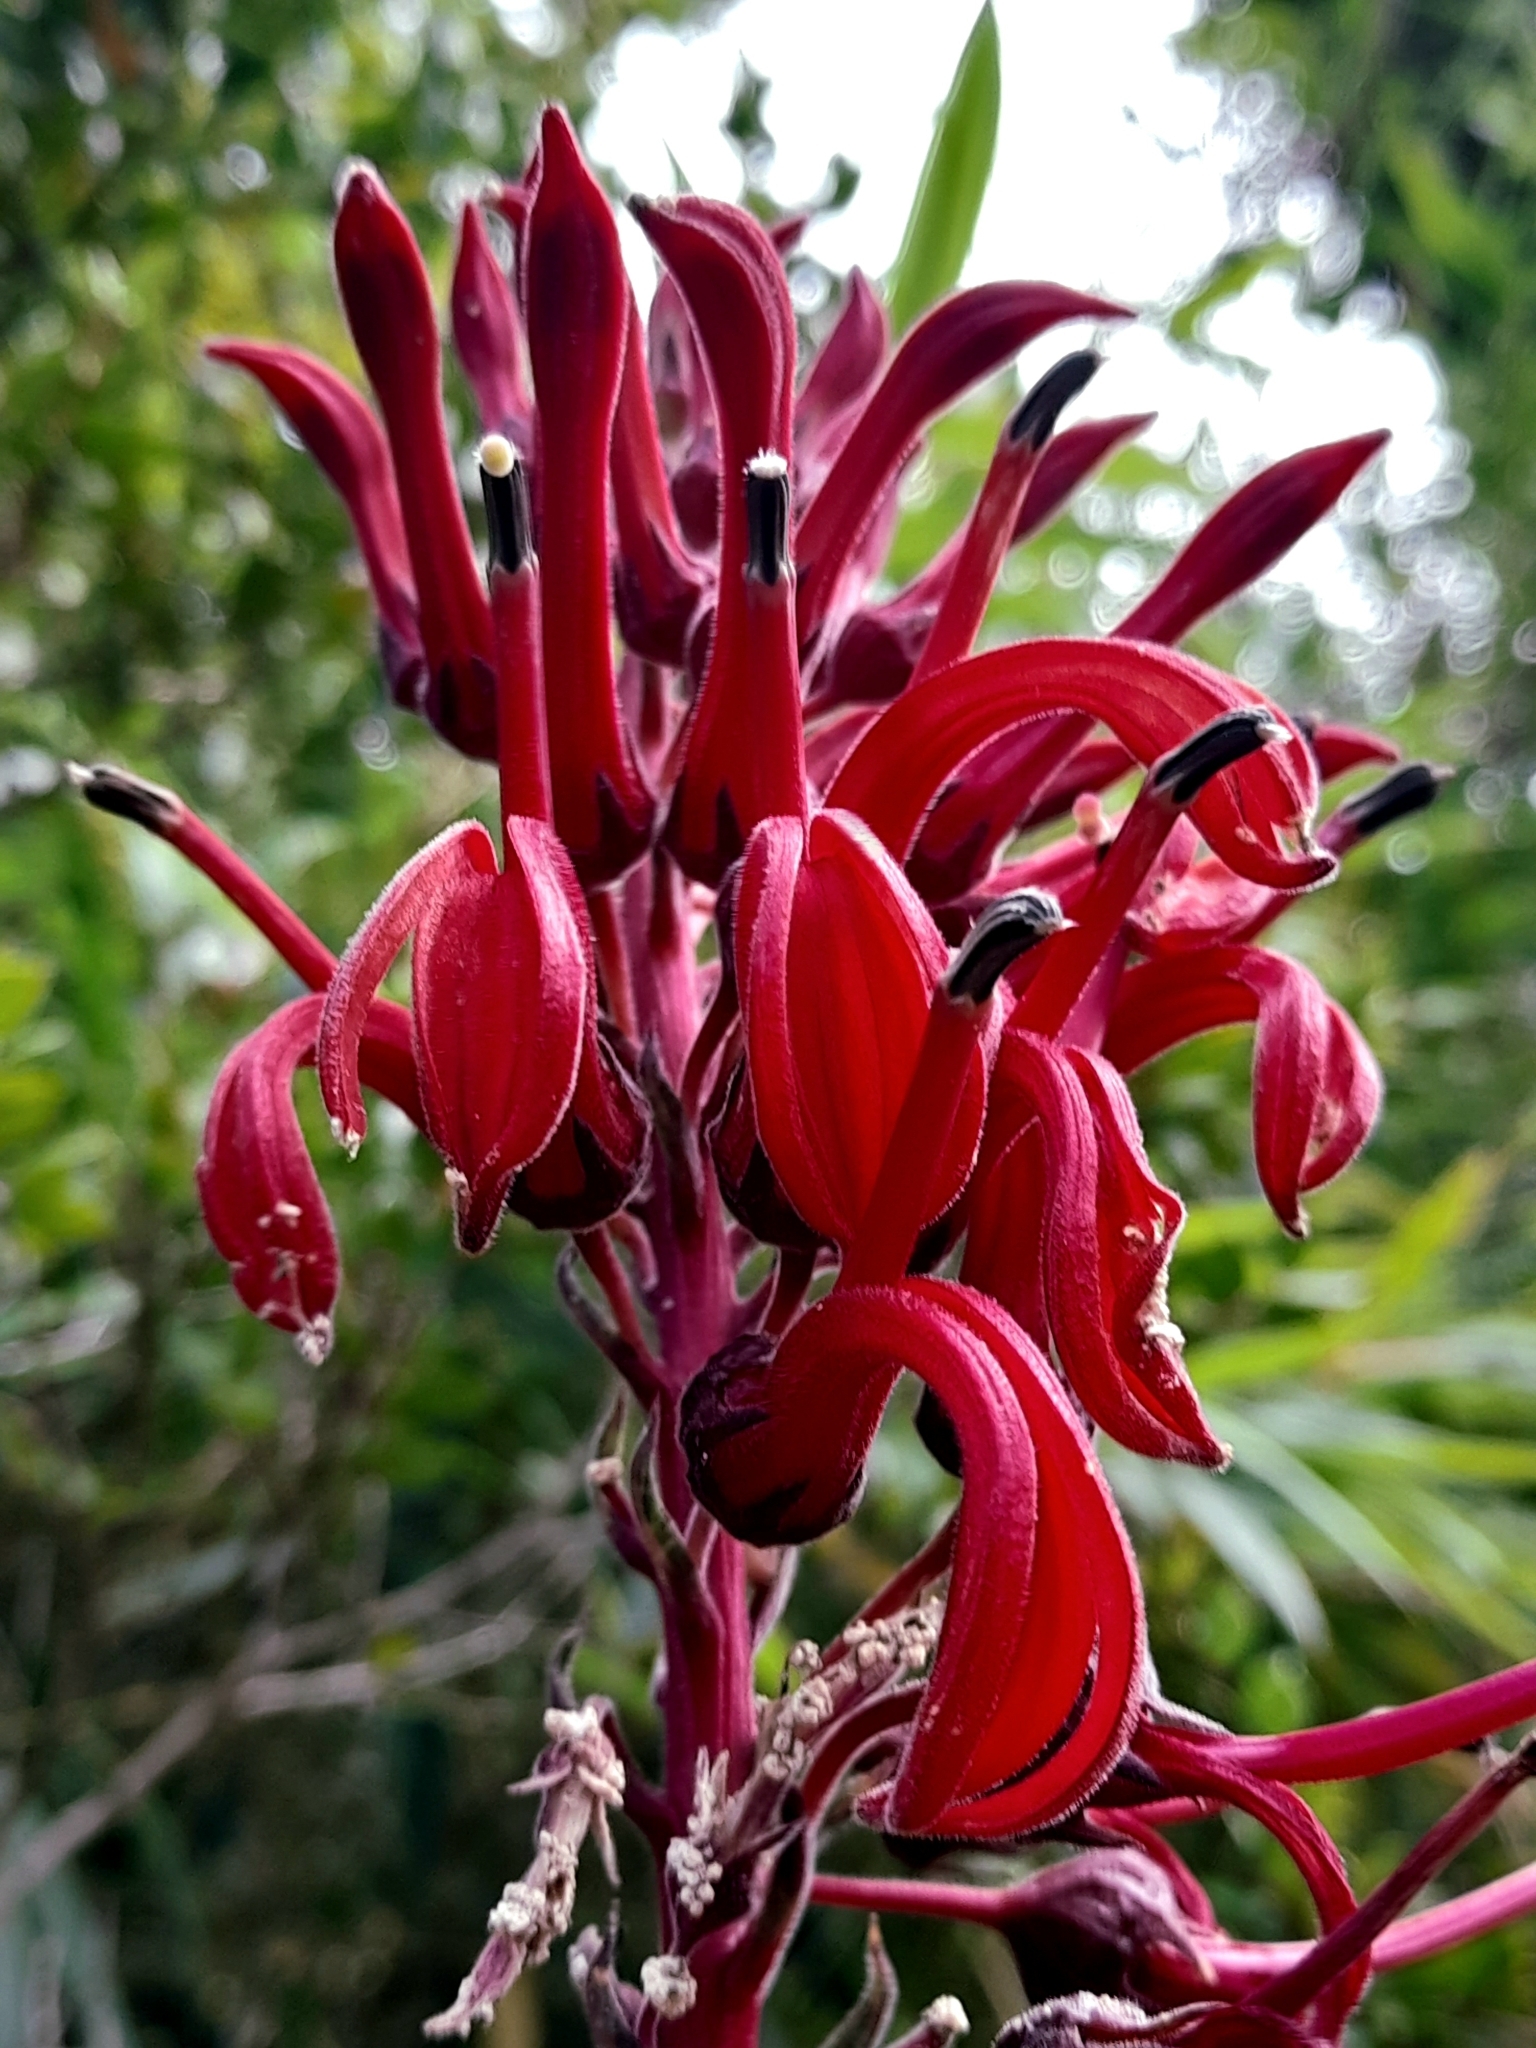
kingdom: Plantae
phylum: Tracheophyta
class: Magnoliopsida
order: Asterales
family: Campanulaceae
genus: Lobelia
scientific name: Lobelia tupa
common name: Devil's-tobacco
